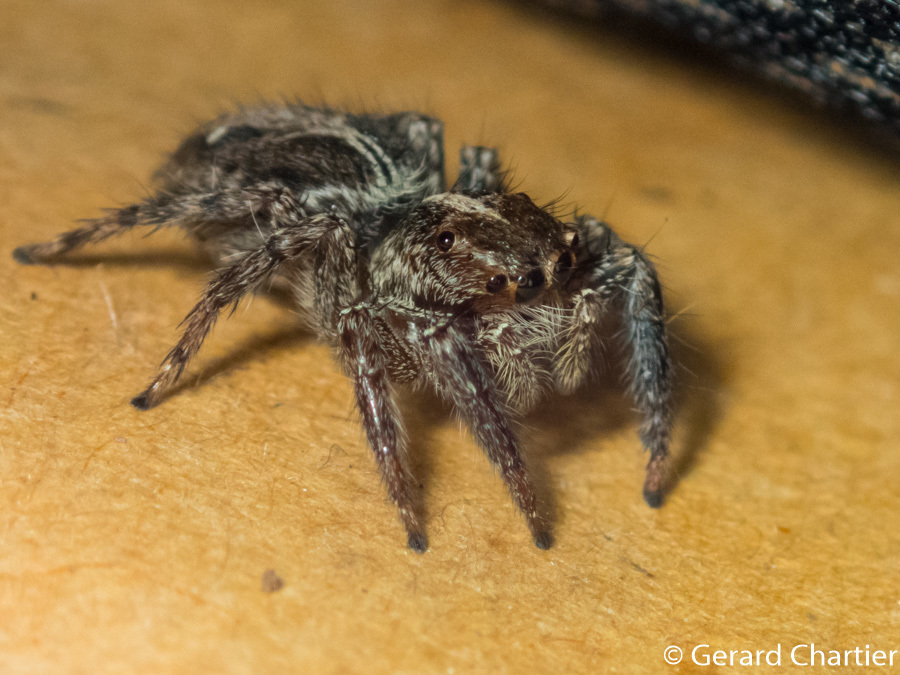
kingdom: Animalia
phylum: Arthropoda
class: Arachnida
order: Araneae
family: Salticidae
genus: Plexippus
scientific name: Plexippus paykulli
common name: Pantropical jumper
